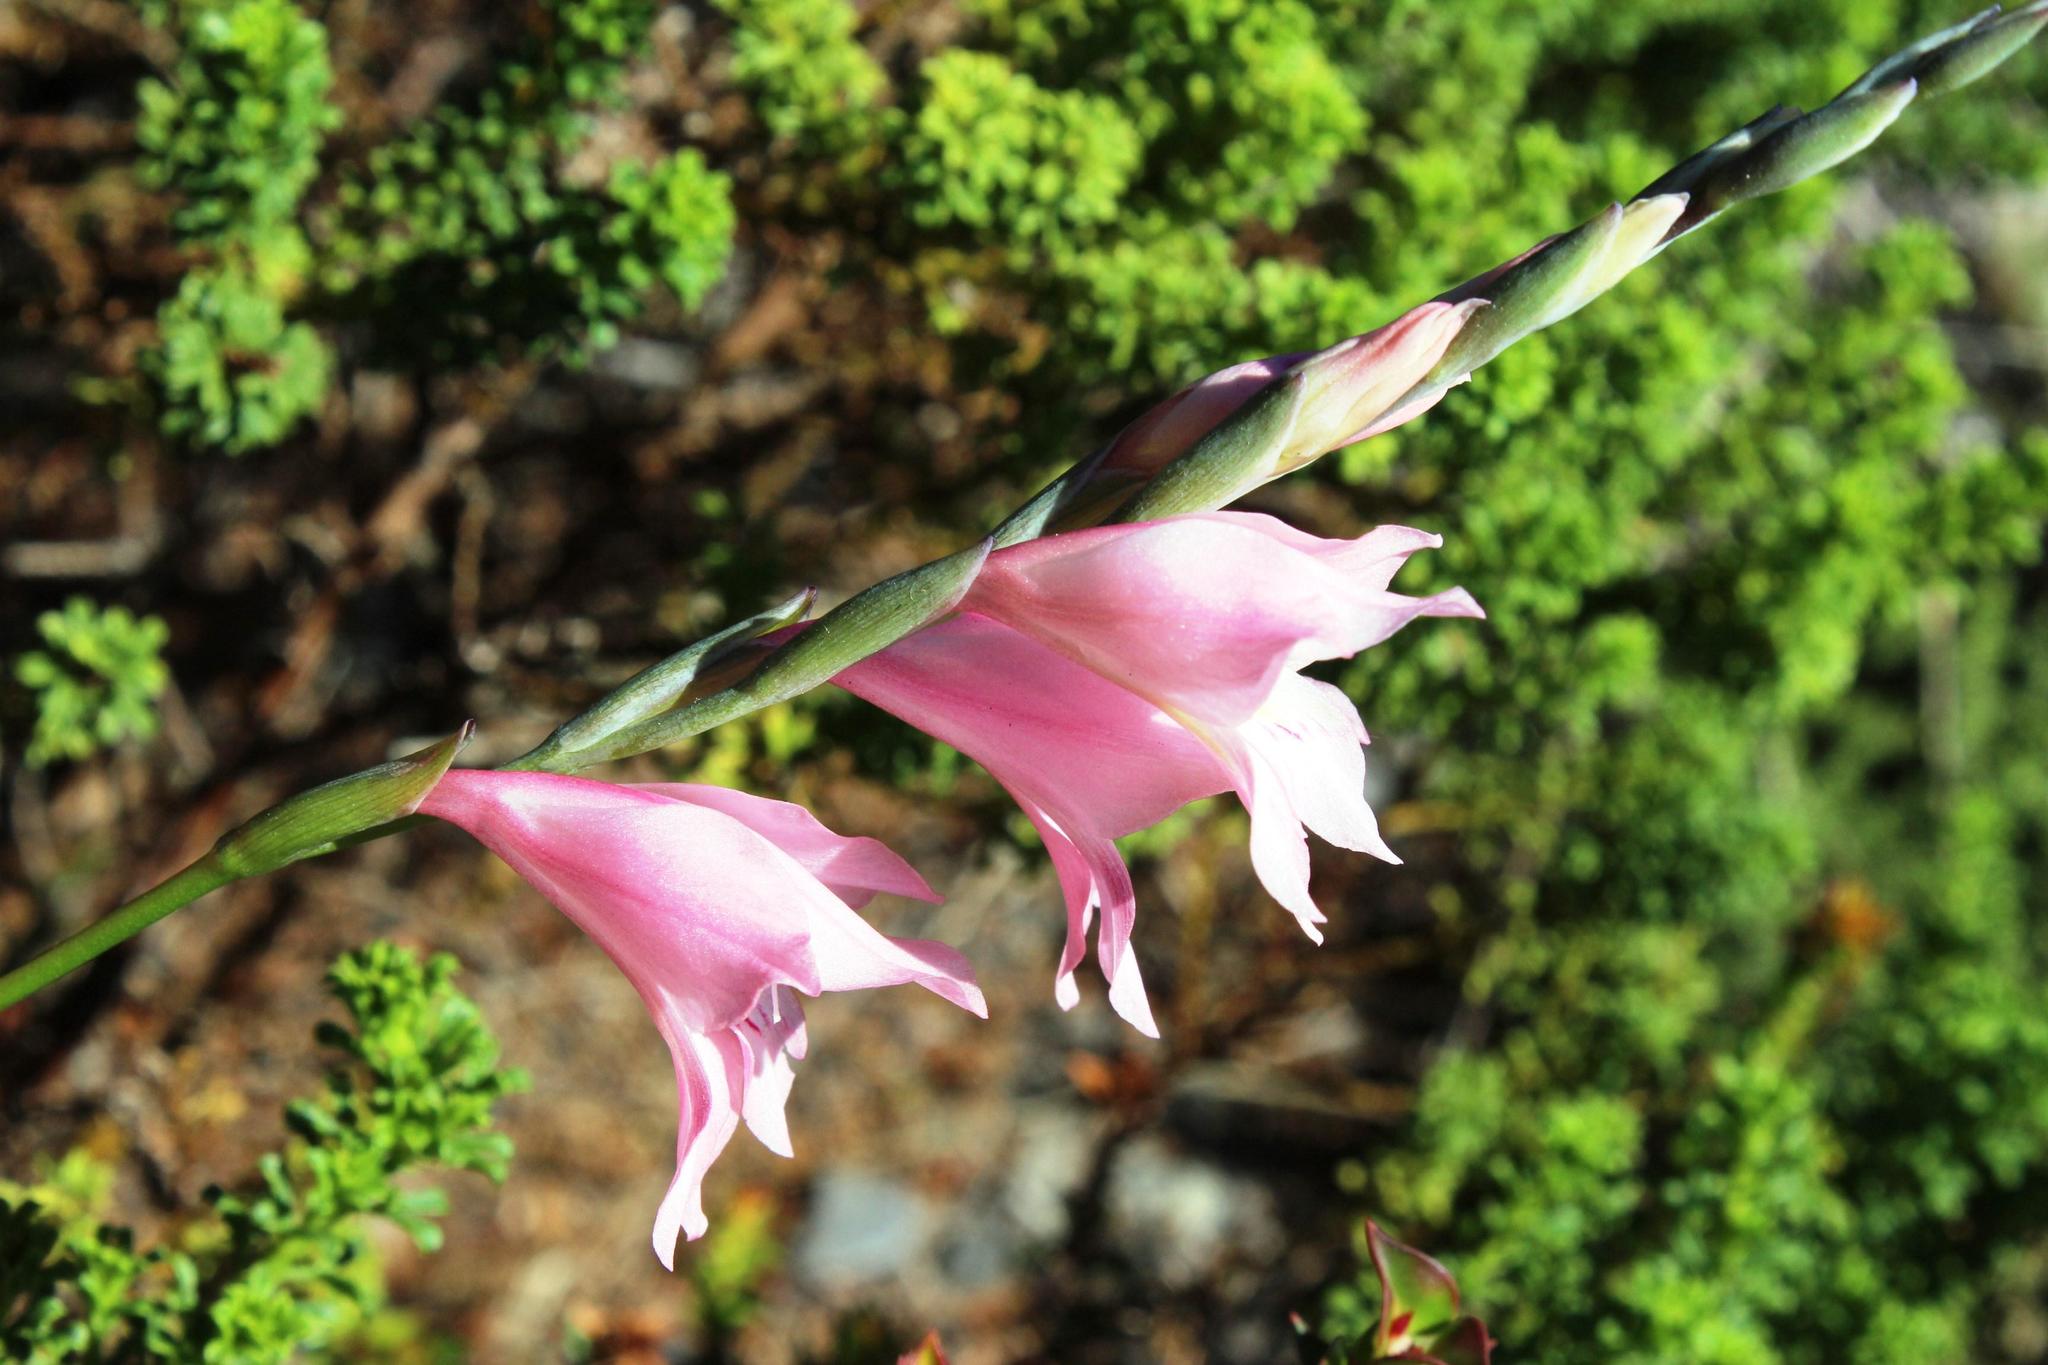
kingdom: Plantae
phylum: Tracheophyta
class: Liliopsida
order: Asparagales
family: Iridaceae
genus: Gladiolus
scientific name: Gladiolus brevifolius
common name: March pypie
